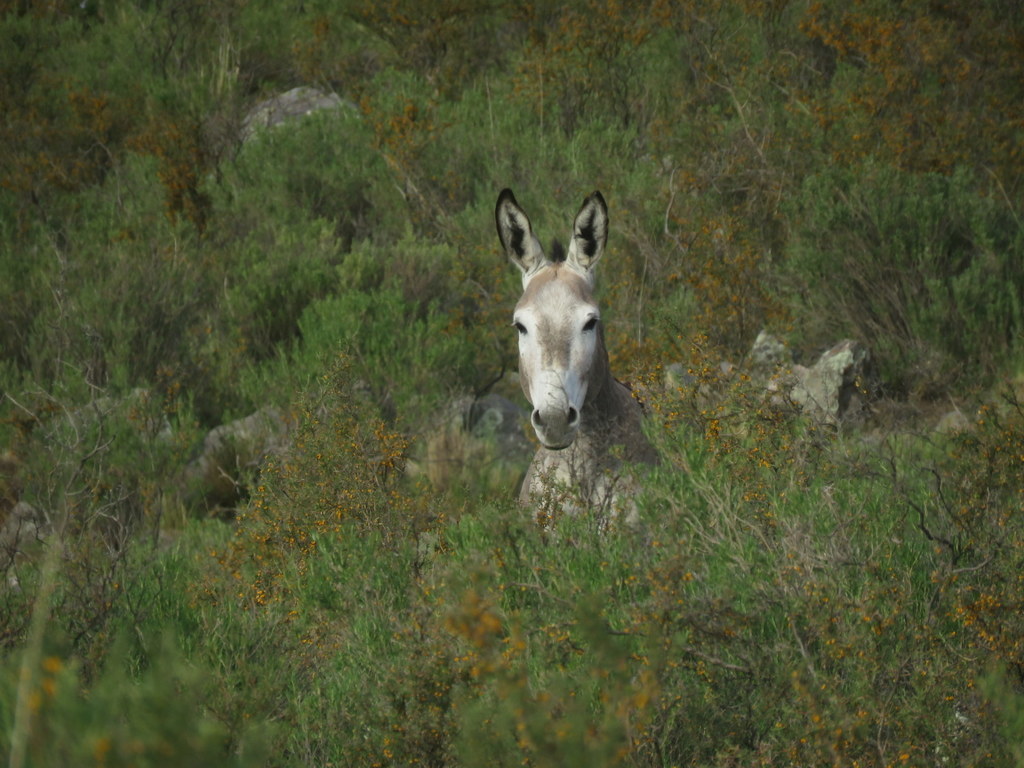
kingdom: Animalia
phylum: Chordata
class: Mammalia
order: Perissodactyla
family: Equidae
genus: Equus
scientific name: Equus asinus
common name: Ass
